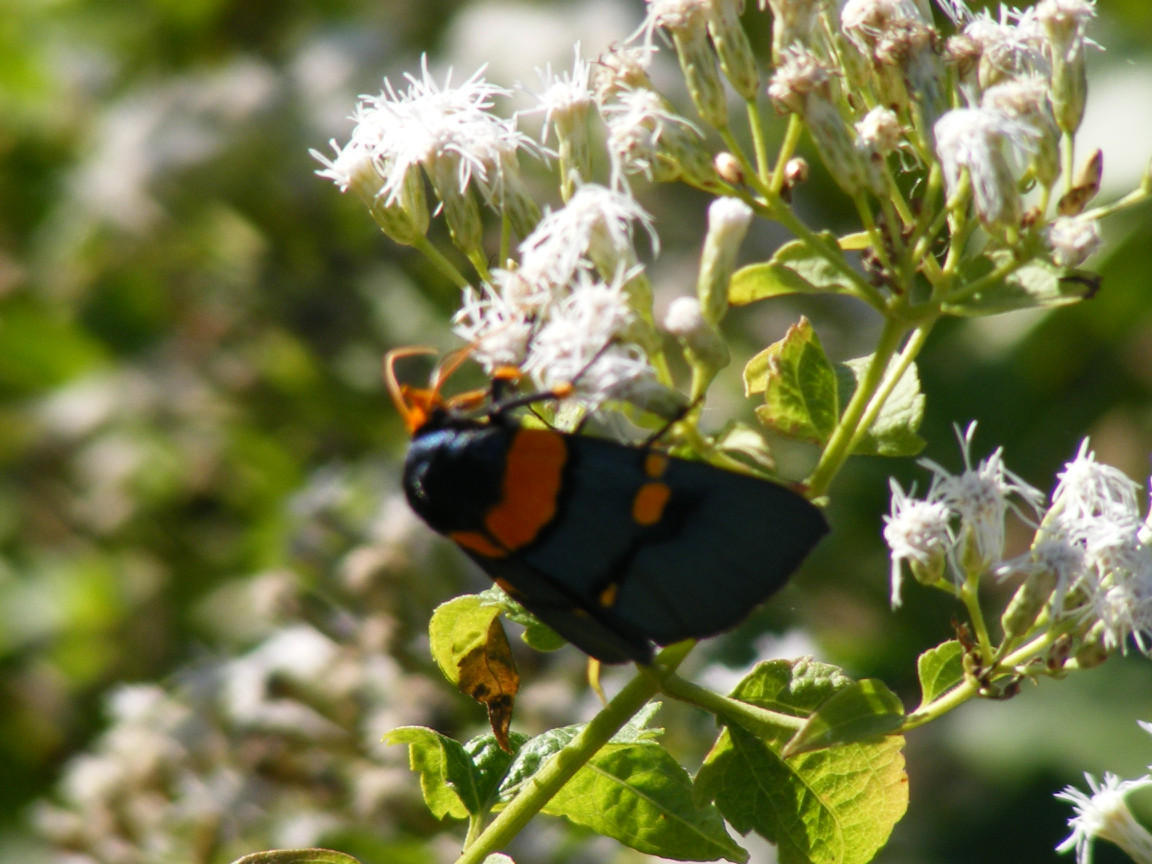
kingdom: Animalia
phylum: Arthropoda
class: Insecta
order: Lepidoptera
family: Erebidae
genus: Egybolis
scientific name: Egybolis vaillantina
